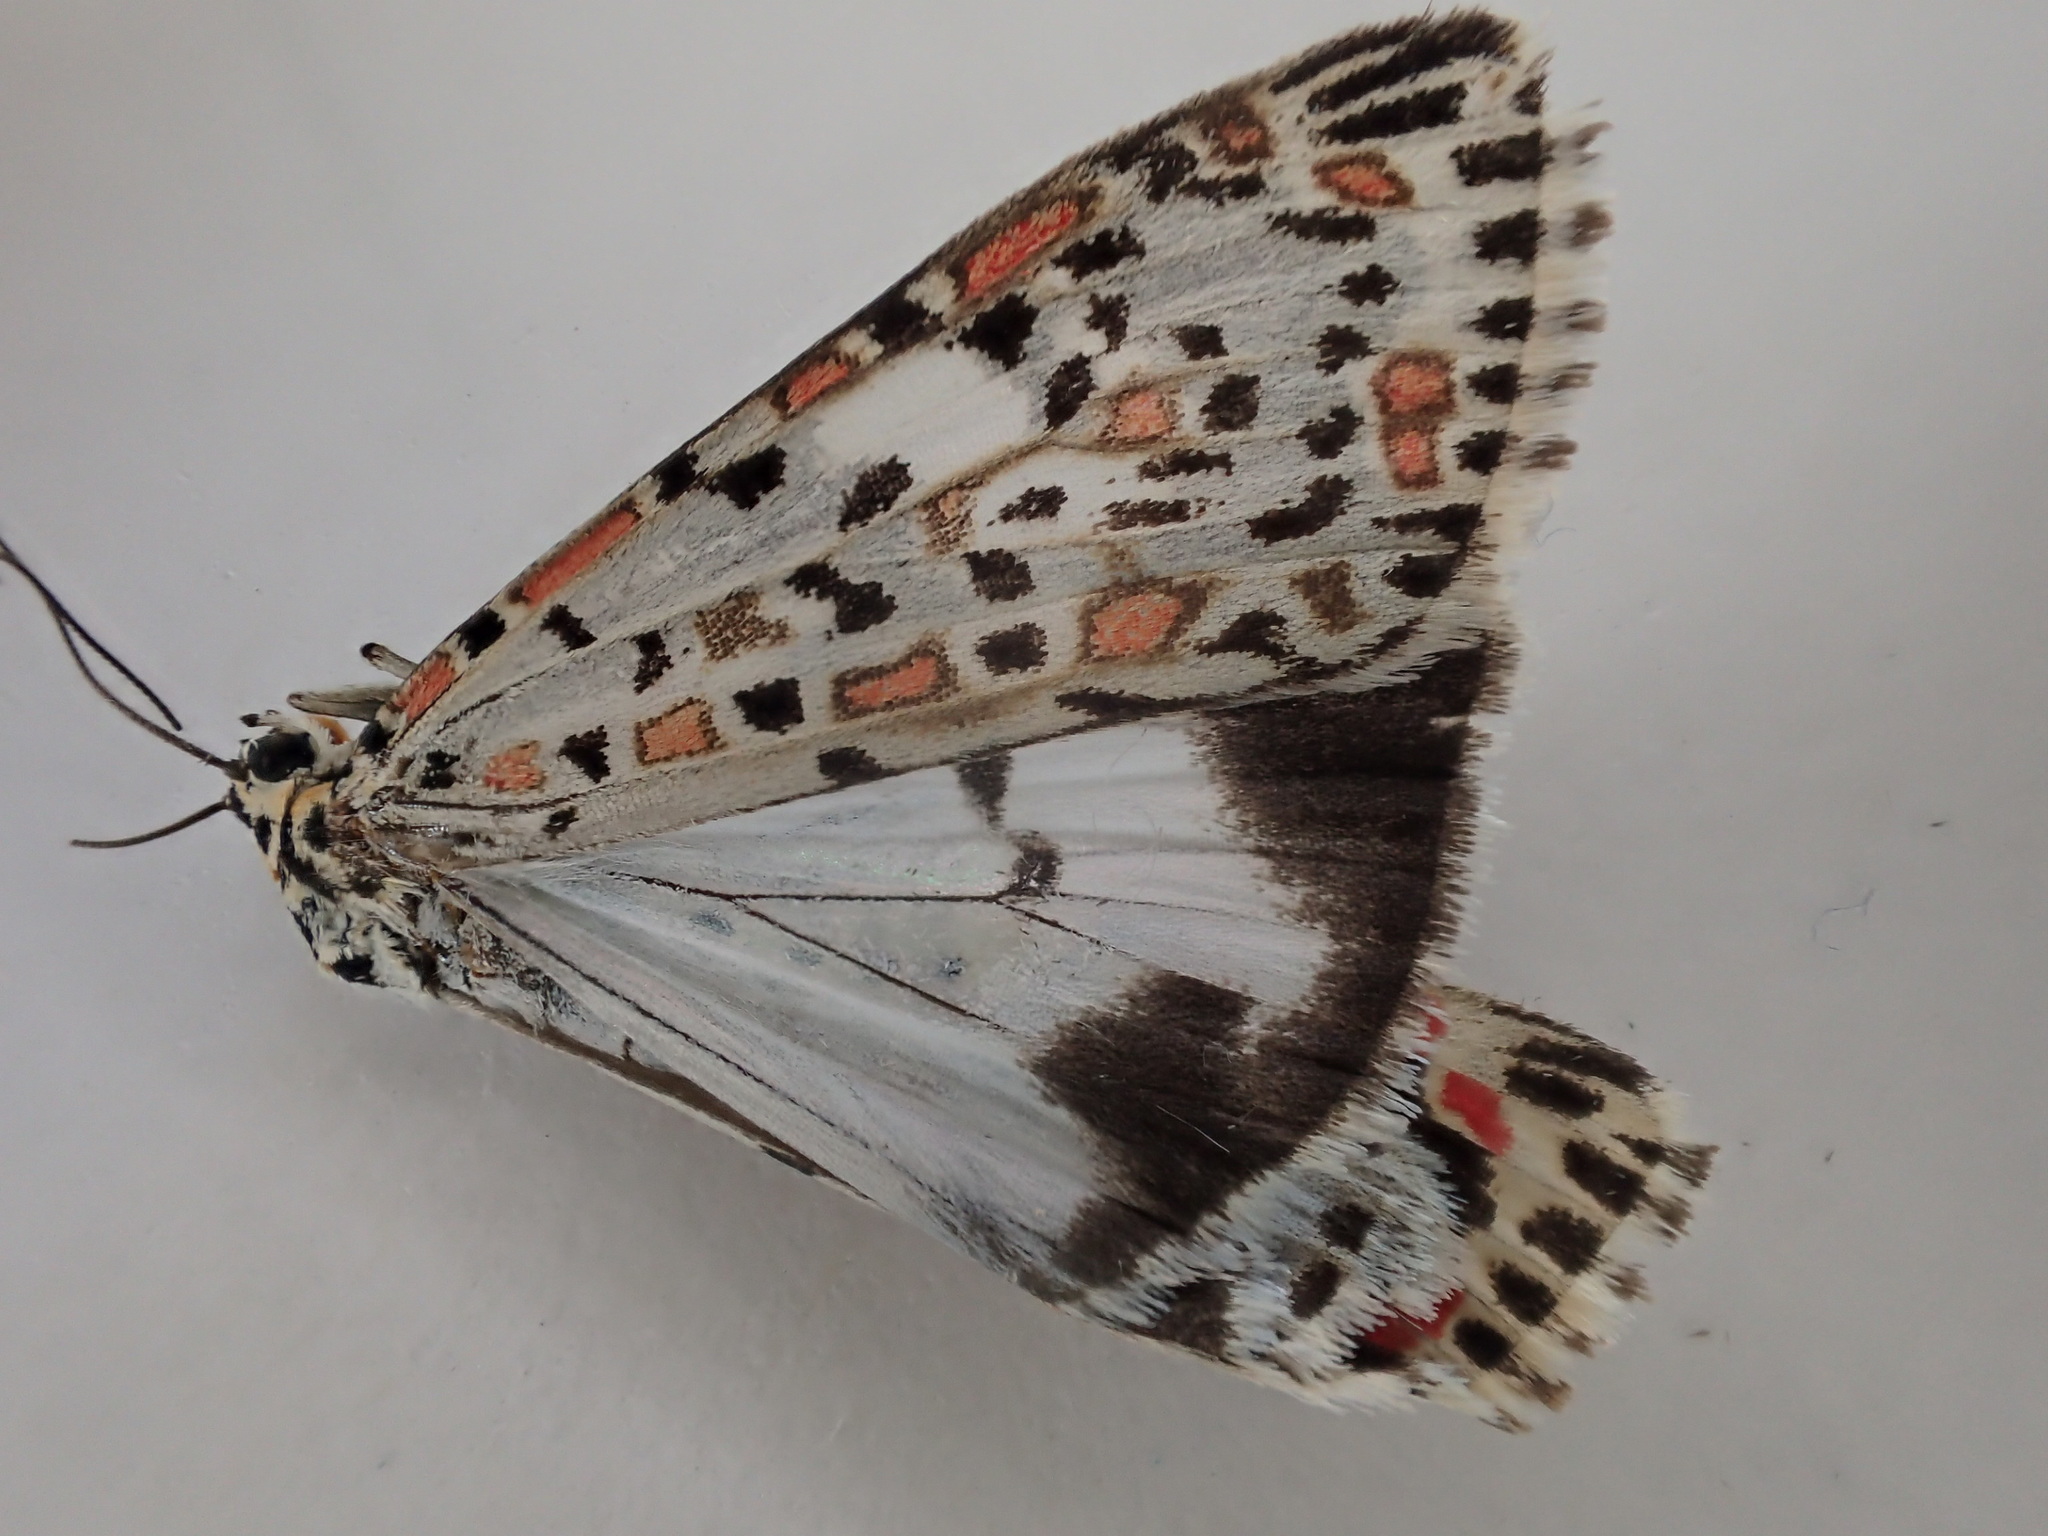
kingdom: Animalia
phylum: Arthropoda
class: Insecta
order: Lepidoptera
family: Erebidae
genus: Utetheisa
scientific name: Utetheisa pulchelloides
